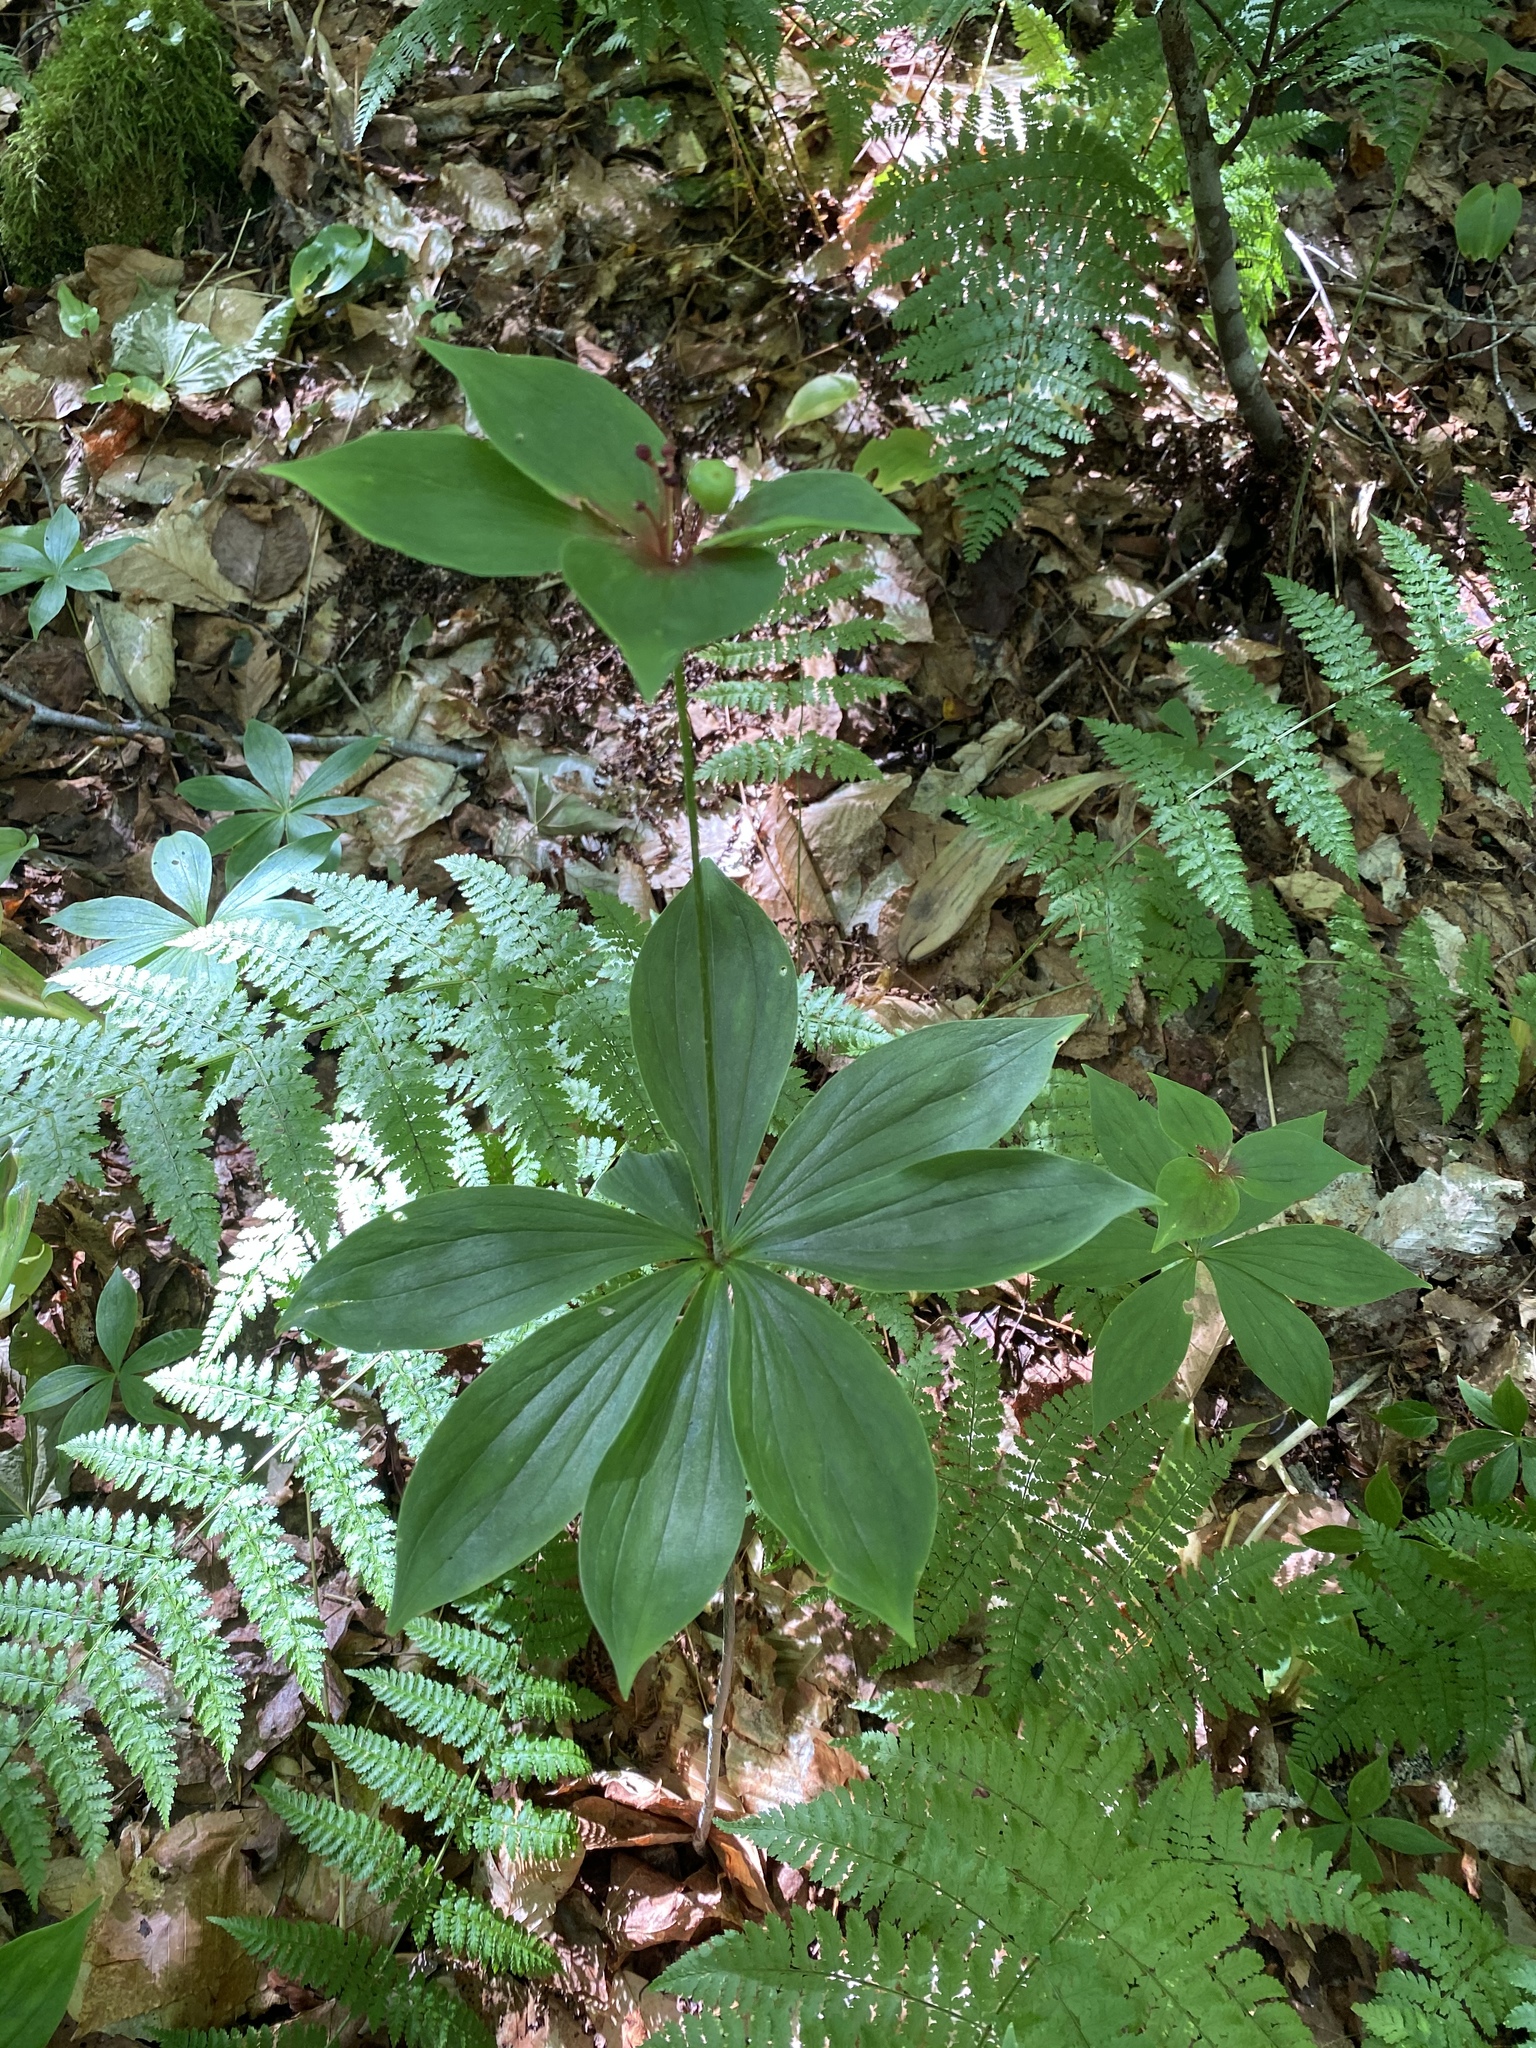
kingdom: Plantae
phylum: Tracheophyta
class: Liliopsida
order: Liliales
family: Liliaceae
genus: Medeola
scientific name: Medeola virginiana
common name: Indian cucumber-root
